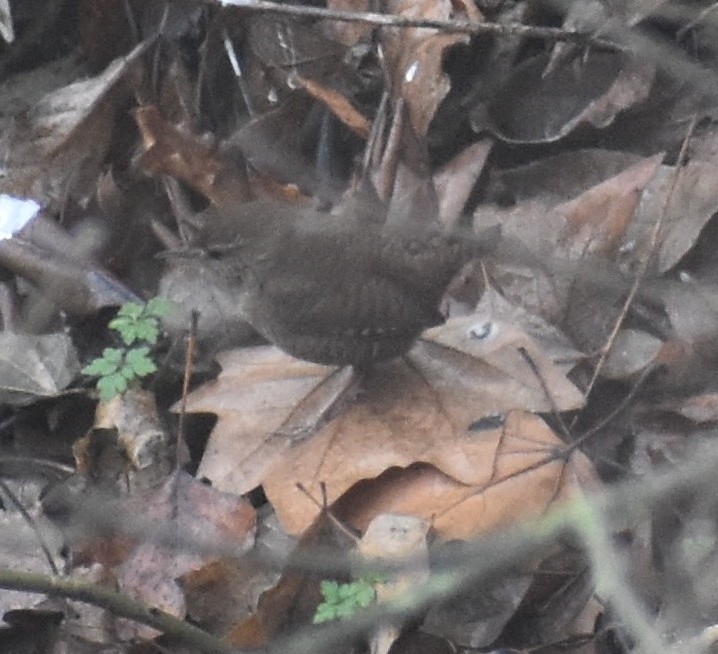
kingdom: Animalia
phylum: Chordata
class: Aves
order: Passeriformes
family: Troglodytidae
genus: Troglodytes
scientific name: Troglodytes troglodytes
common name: Eurasian wren
